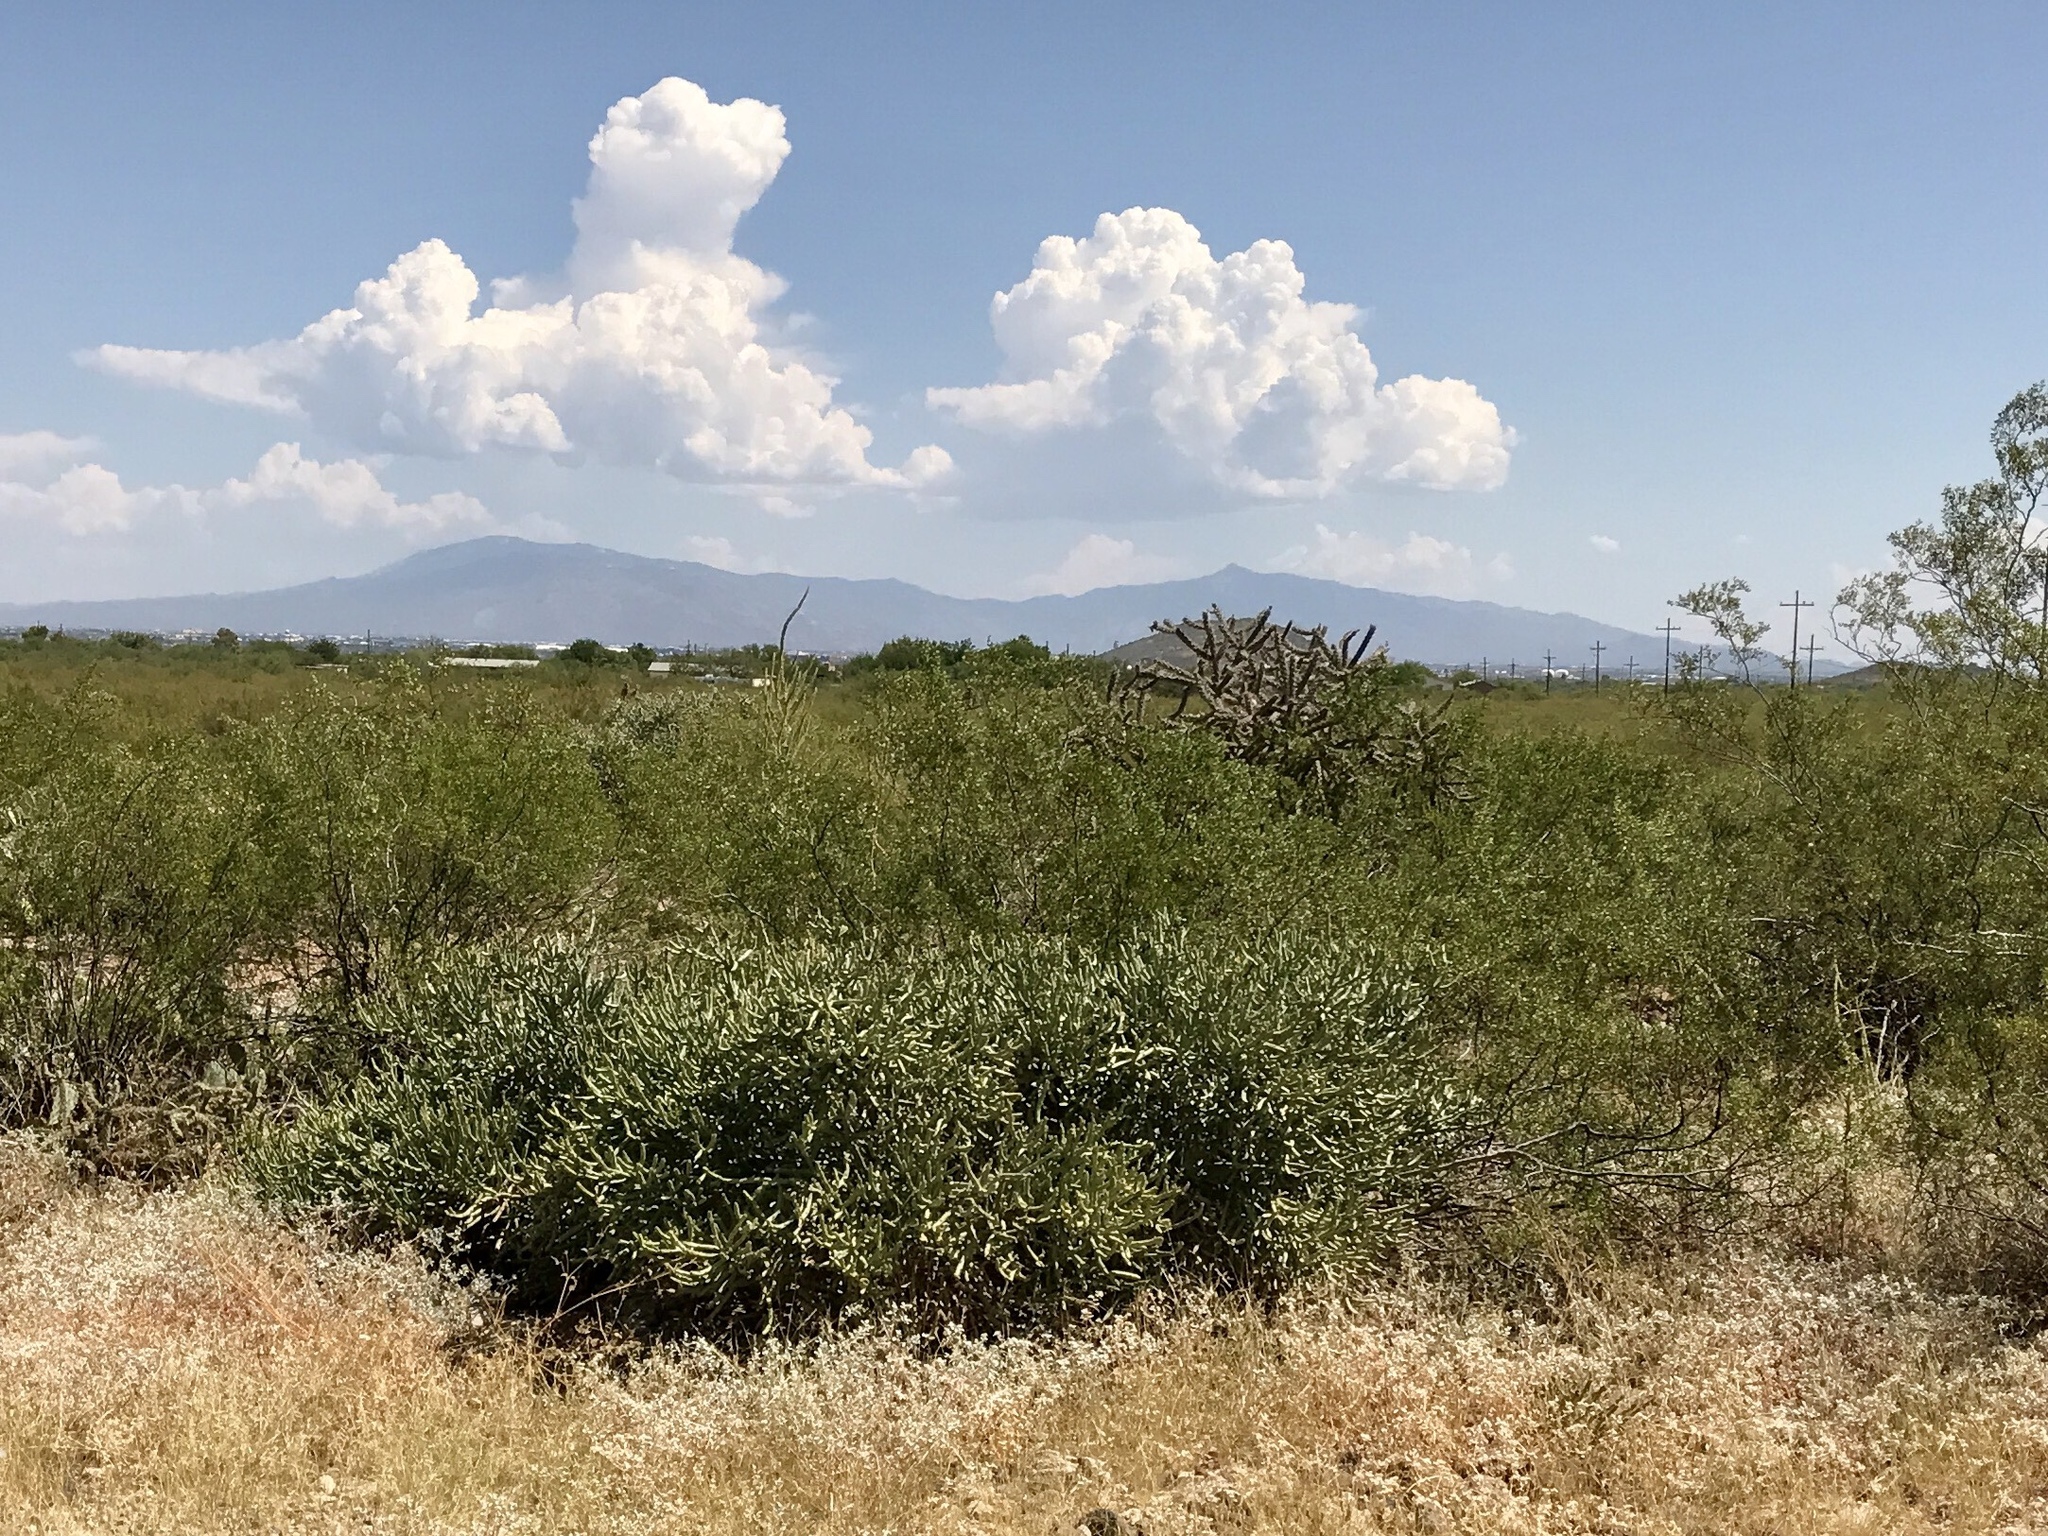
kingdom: Plantae
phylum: Tracheophyta
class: Magnoliopsida
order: Caryophyllales
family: Cactaceae
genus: Cylindropuntia
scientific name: Cylindropuntia arbuscula
